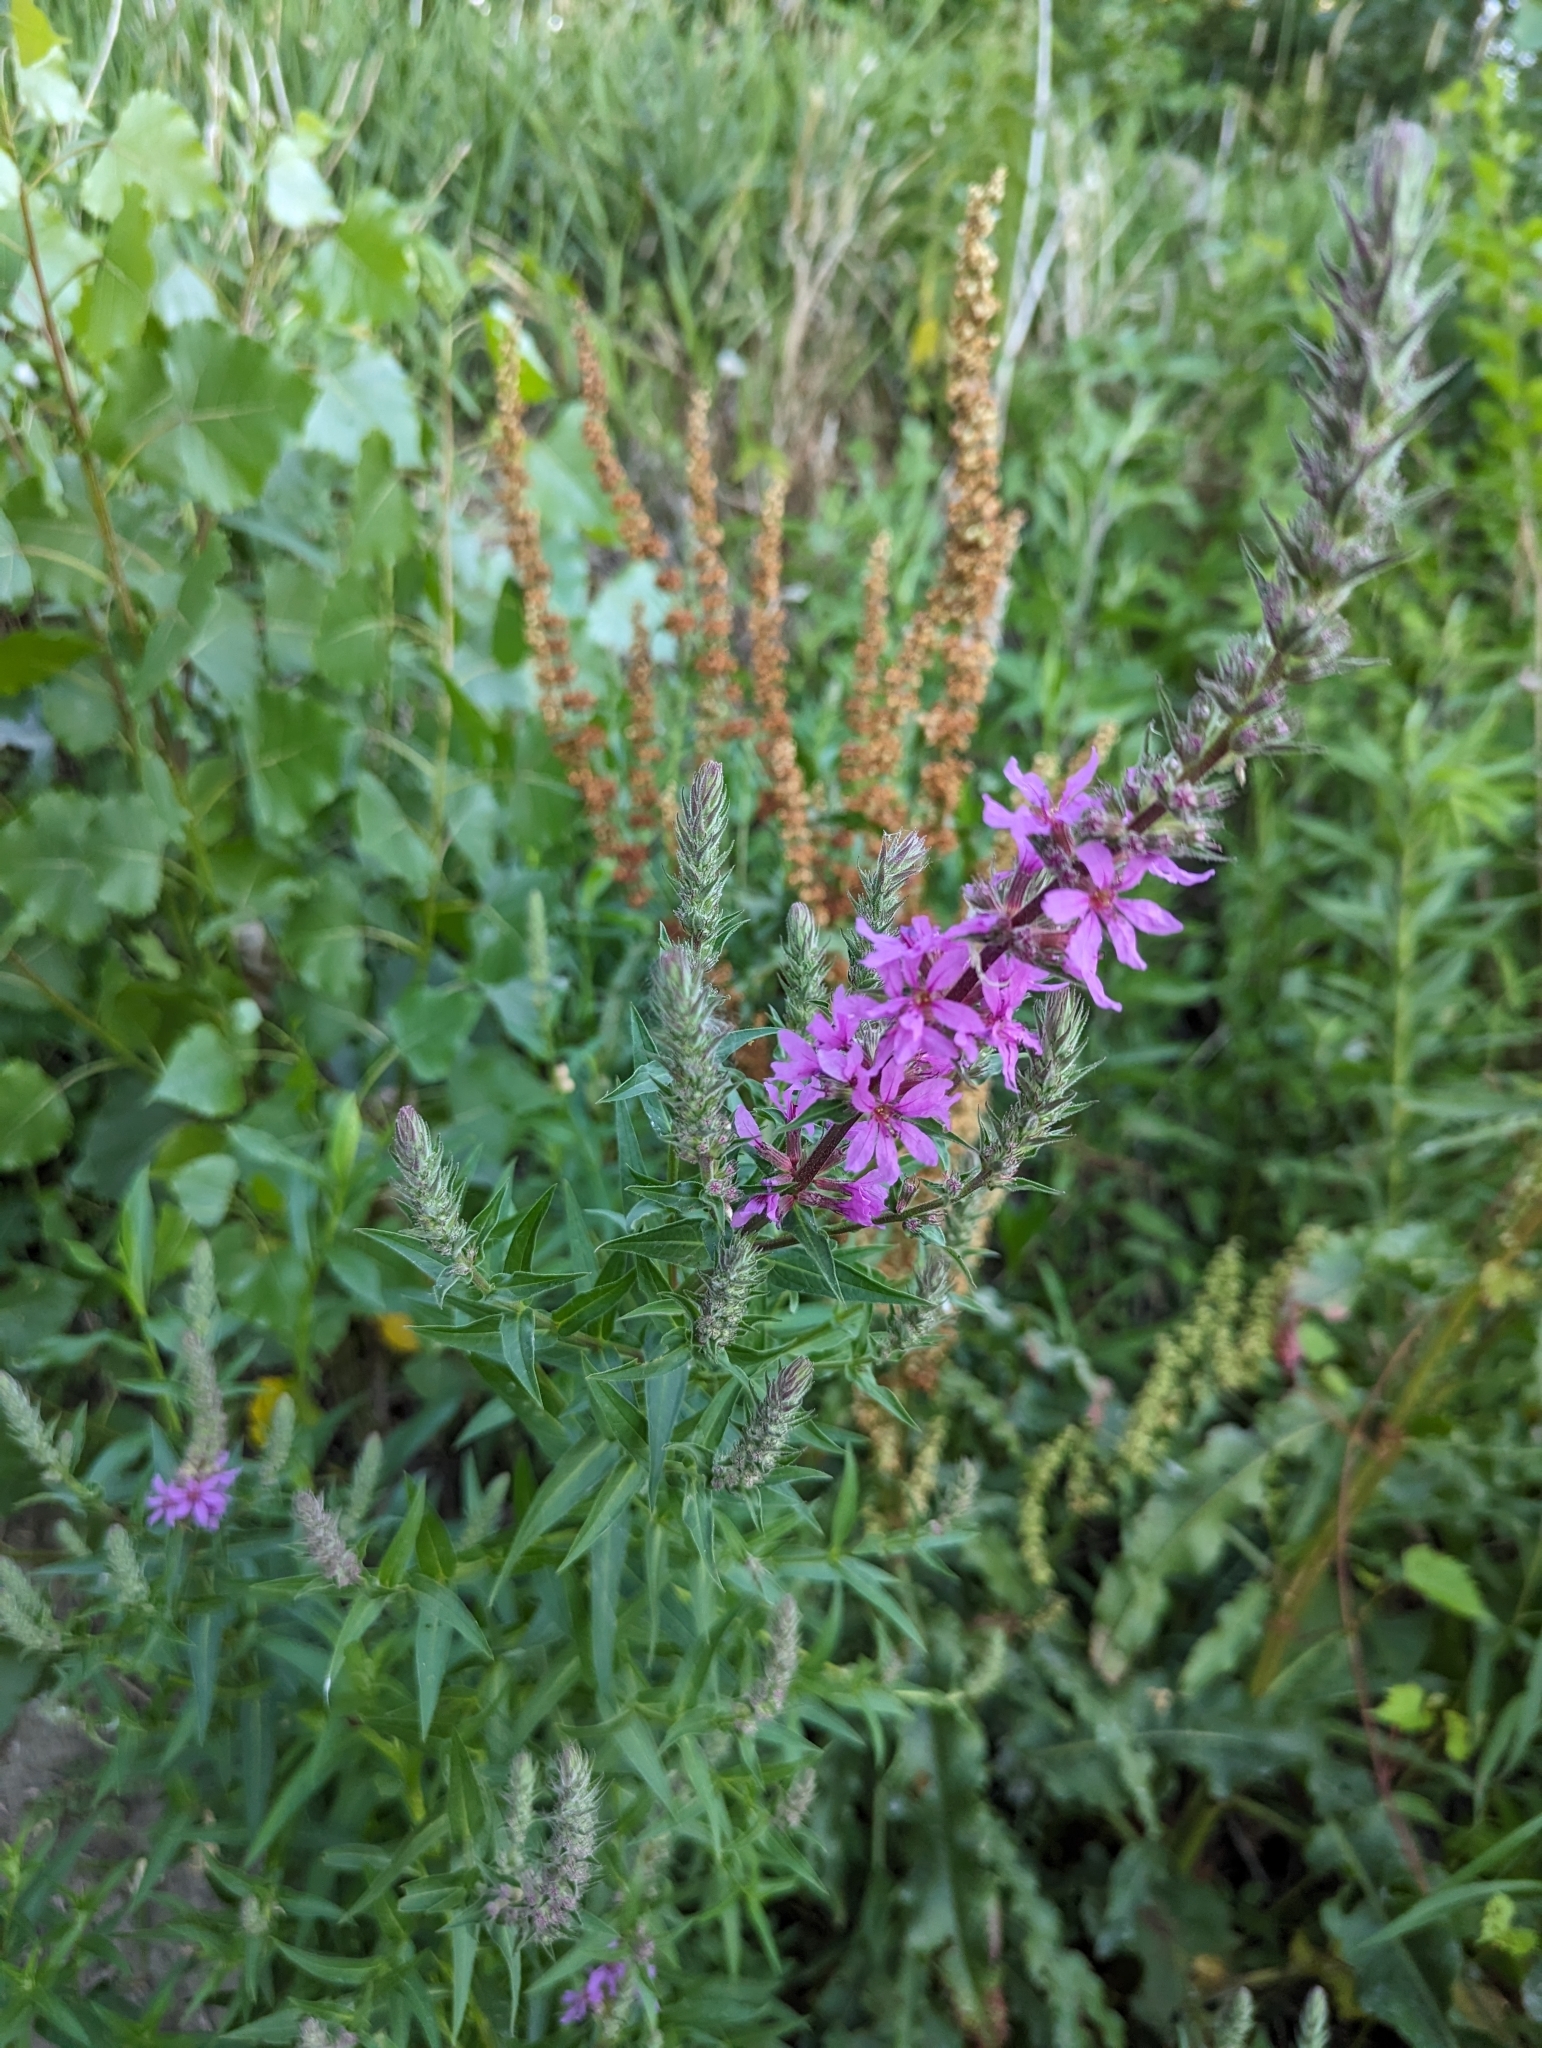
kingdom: Plantae
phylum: Tracheophyta
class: Magnoliopsida
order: Myrtales
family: Lythraceae
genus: Lythrum
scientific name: Lythrum salicaria
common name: Purple loosestrife
